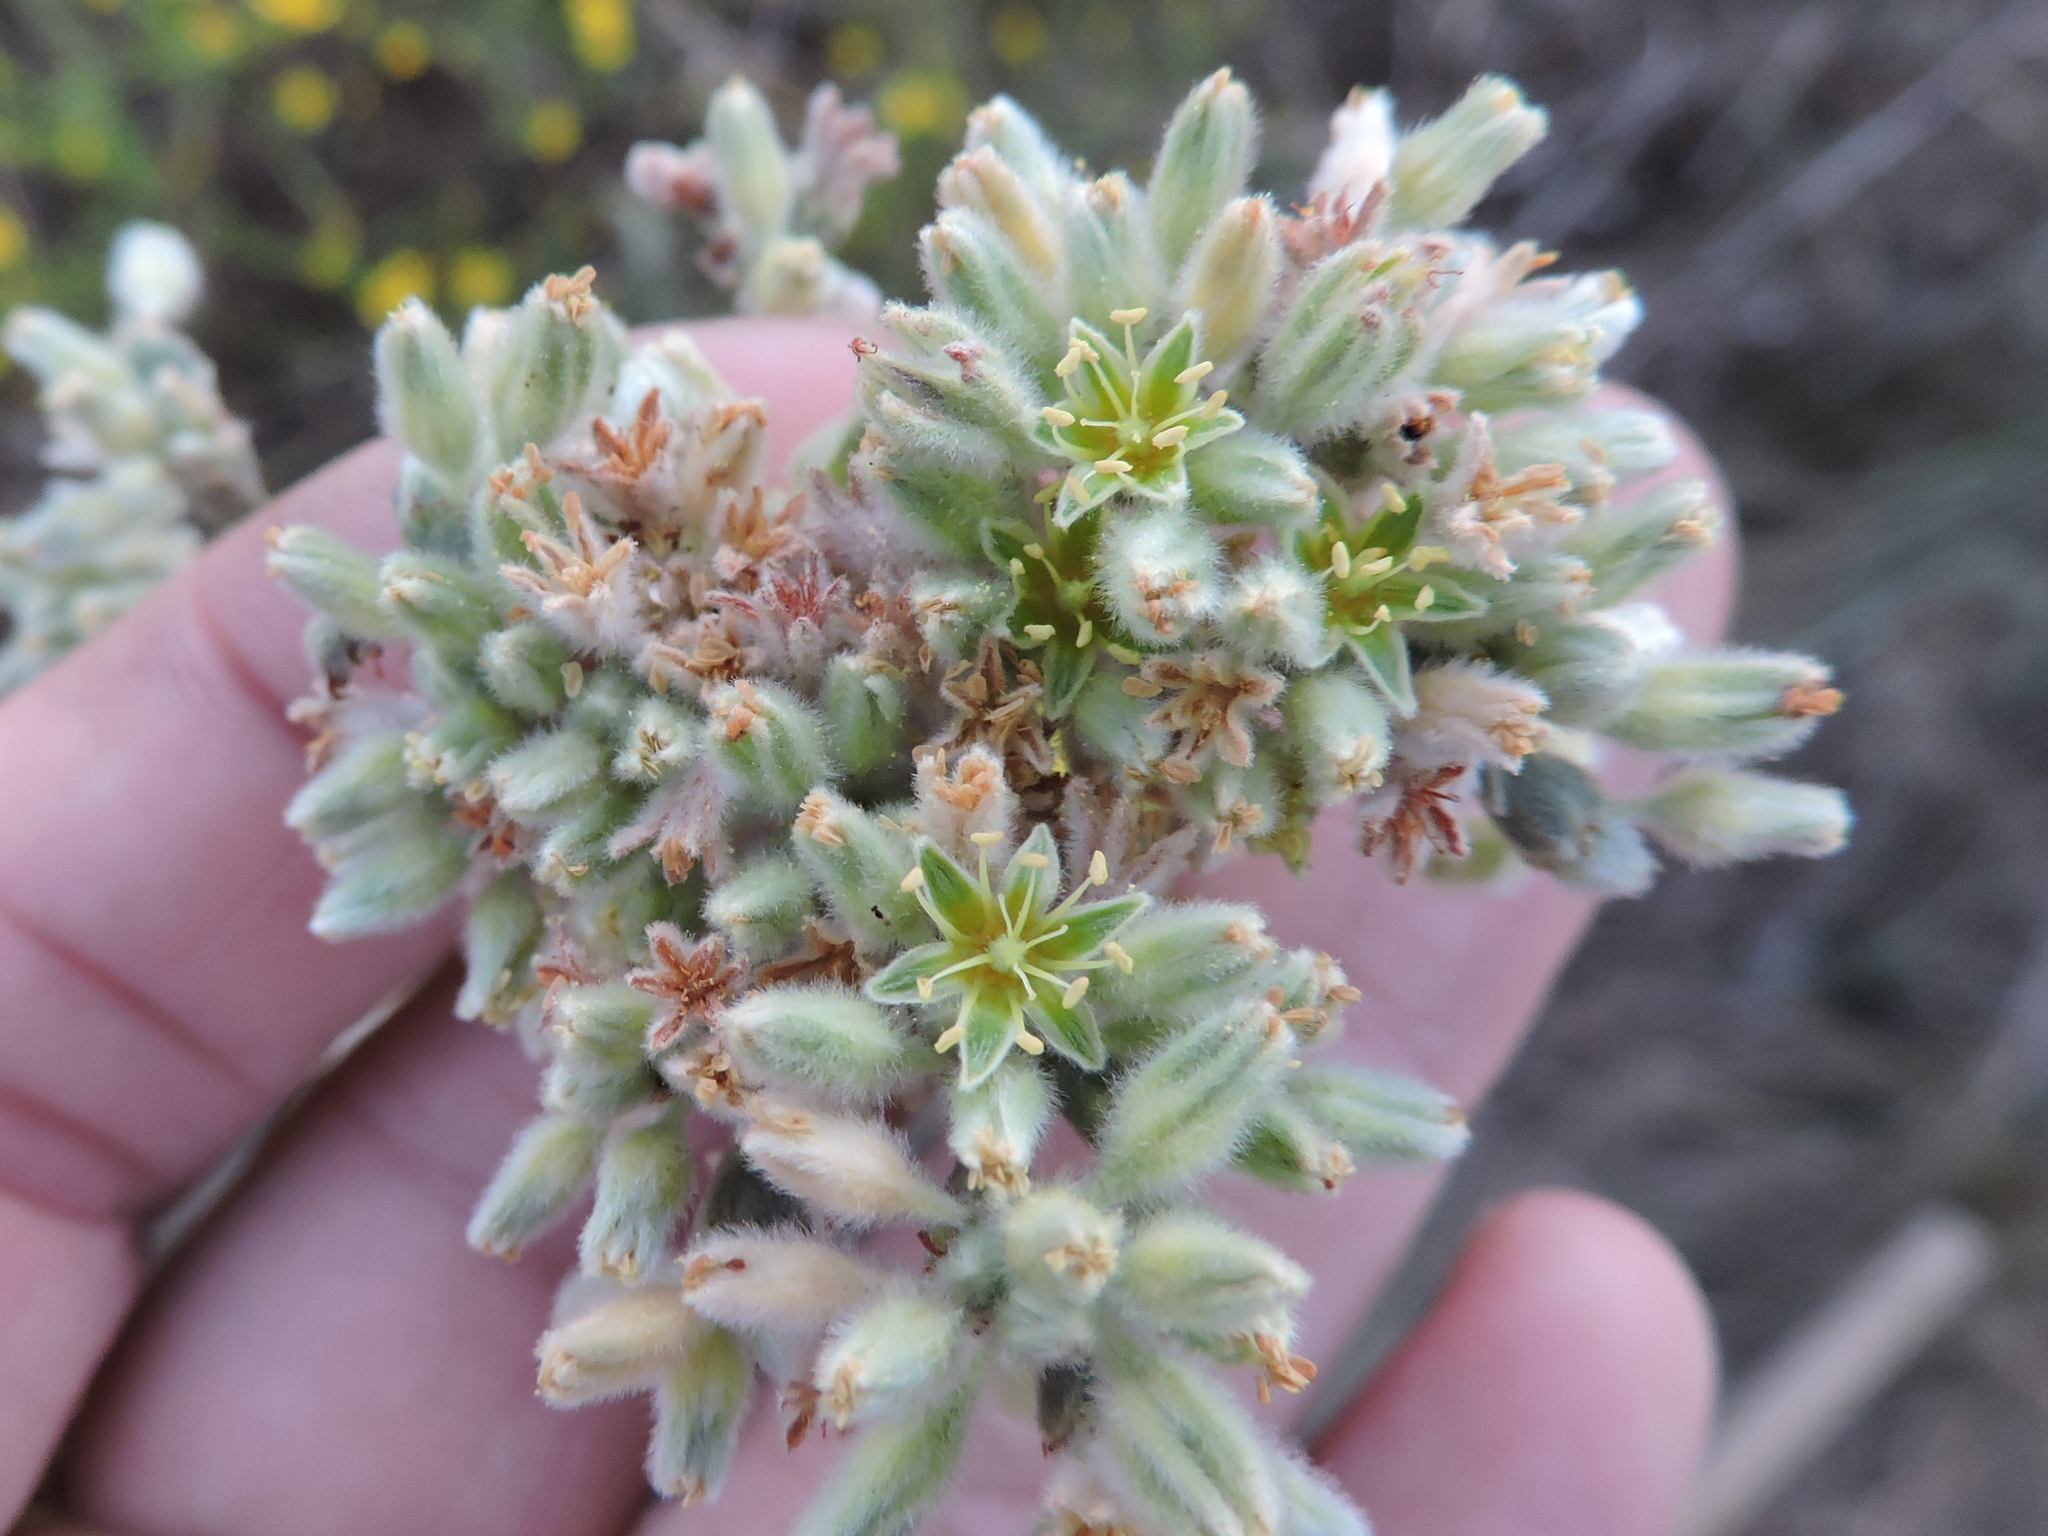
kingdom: Plantae
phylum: Tracheophyta
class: Magnoliopsida
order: Caryophyllales
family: Polygonaceae
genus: Eriogonum
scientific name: Eriogonum longifolium
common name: Longleaf wild buckwheat
